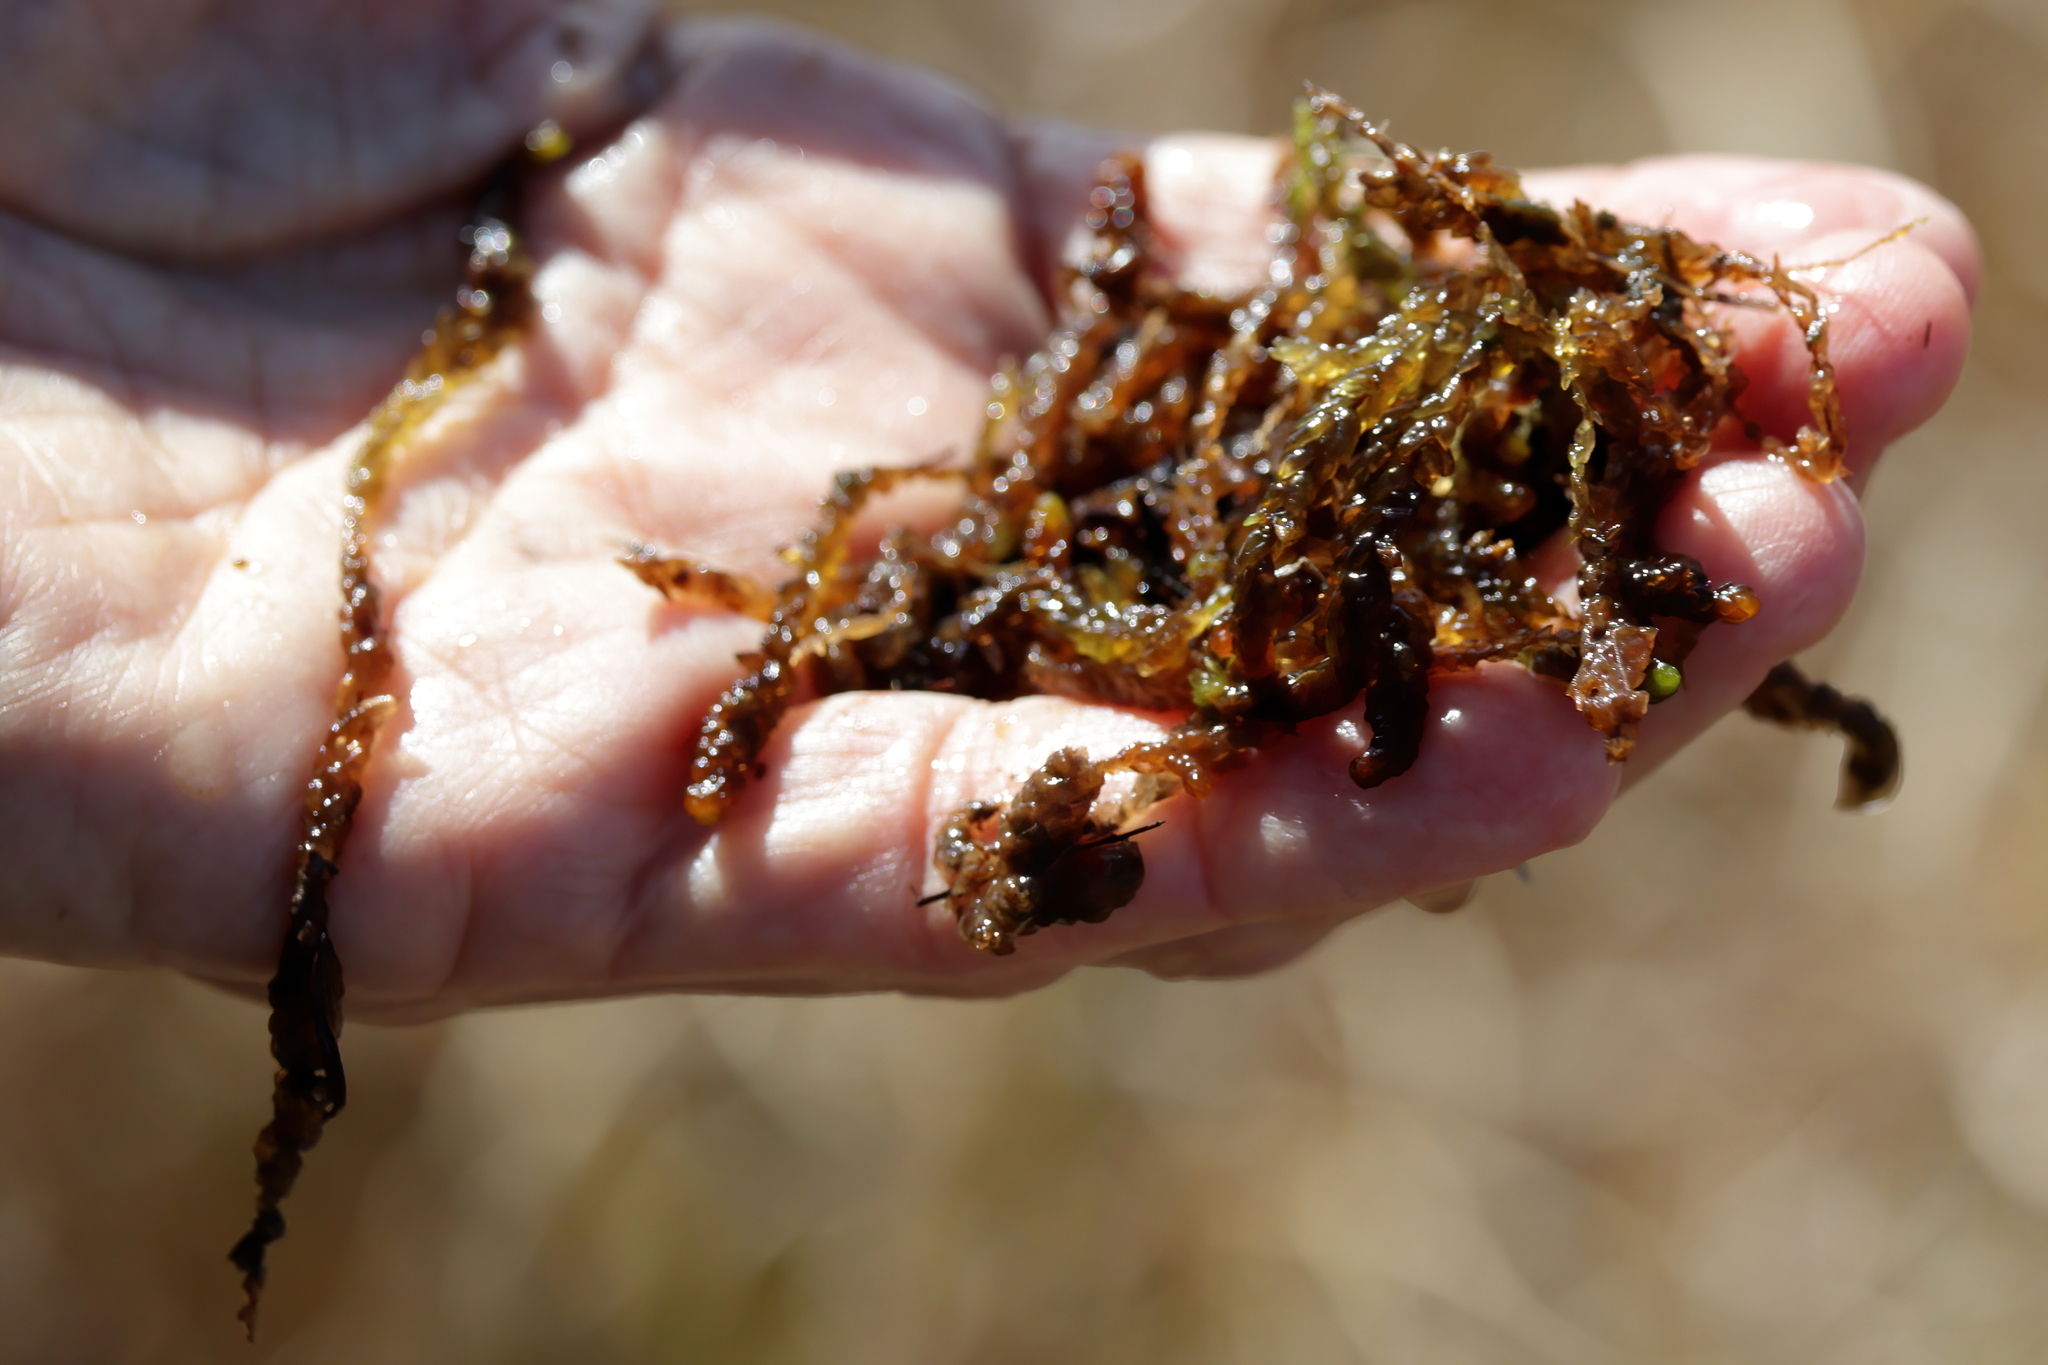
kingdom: Plantae
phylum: Bryophyta
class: Sphagnopsida
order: Sphagnales
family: Sphagnaceae
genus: Sphagnum
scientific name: Sphagnum cyclophyllum
